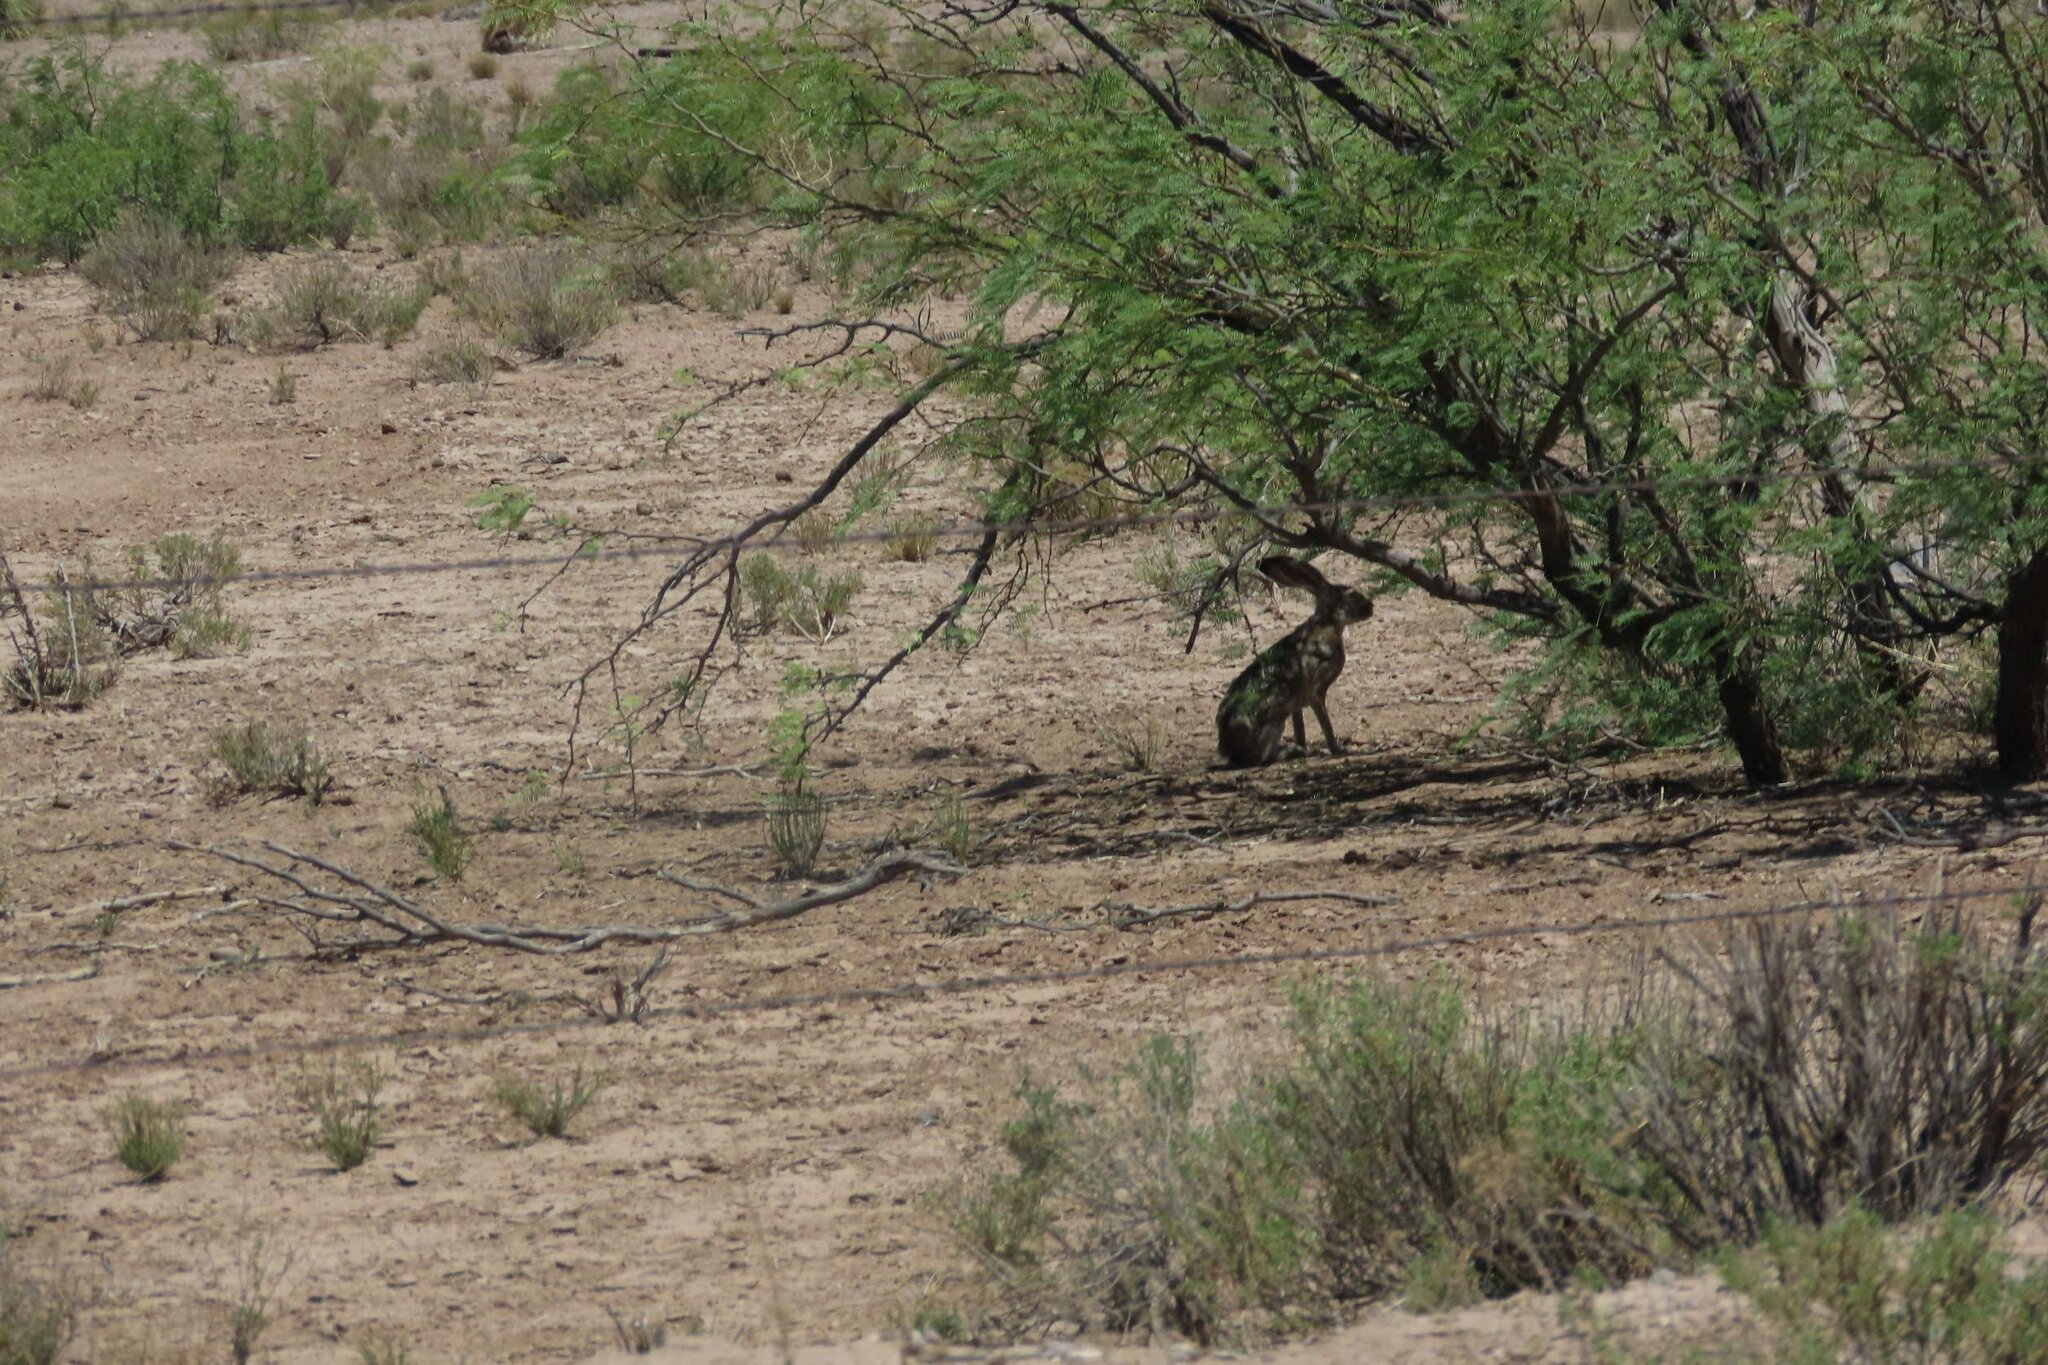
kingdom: Animalia
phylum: Chordata
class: Mammalia
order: Lagomorpha
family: Leporidae
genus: Lepus
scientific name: Lepus californicus
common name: Black-tailed jackrabbit
